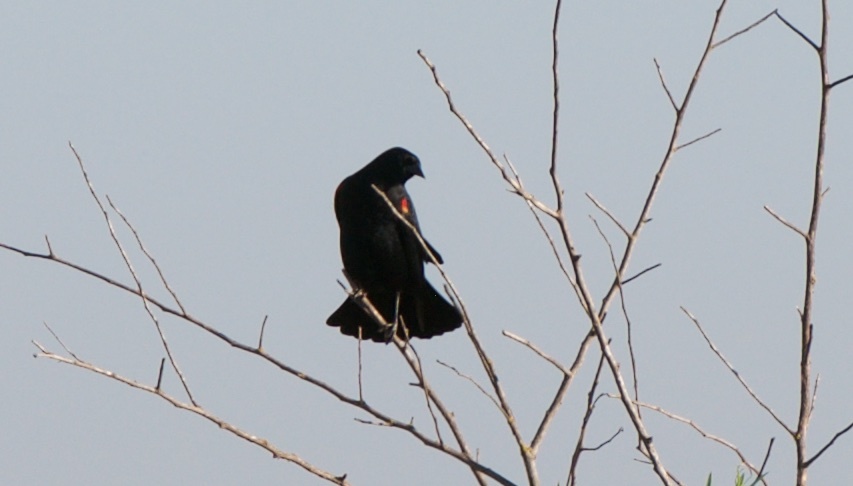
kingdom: Animalia
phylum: Chordata
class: Aves
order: Passeriformes
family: Icteridae
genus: Agelaius
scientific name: Agelaius phoeniceus
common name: Red-winged blackbird
